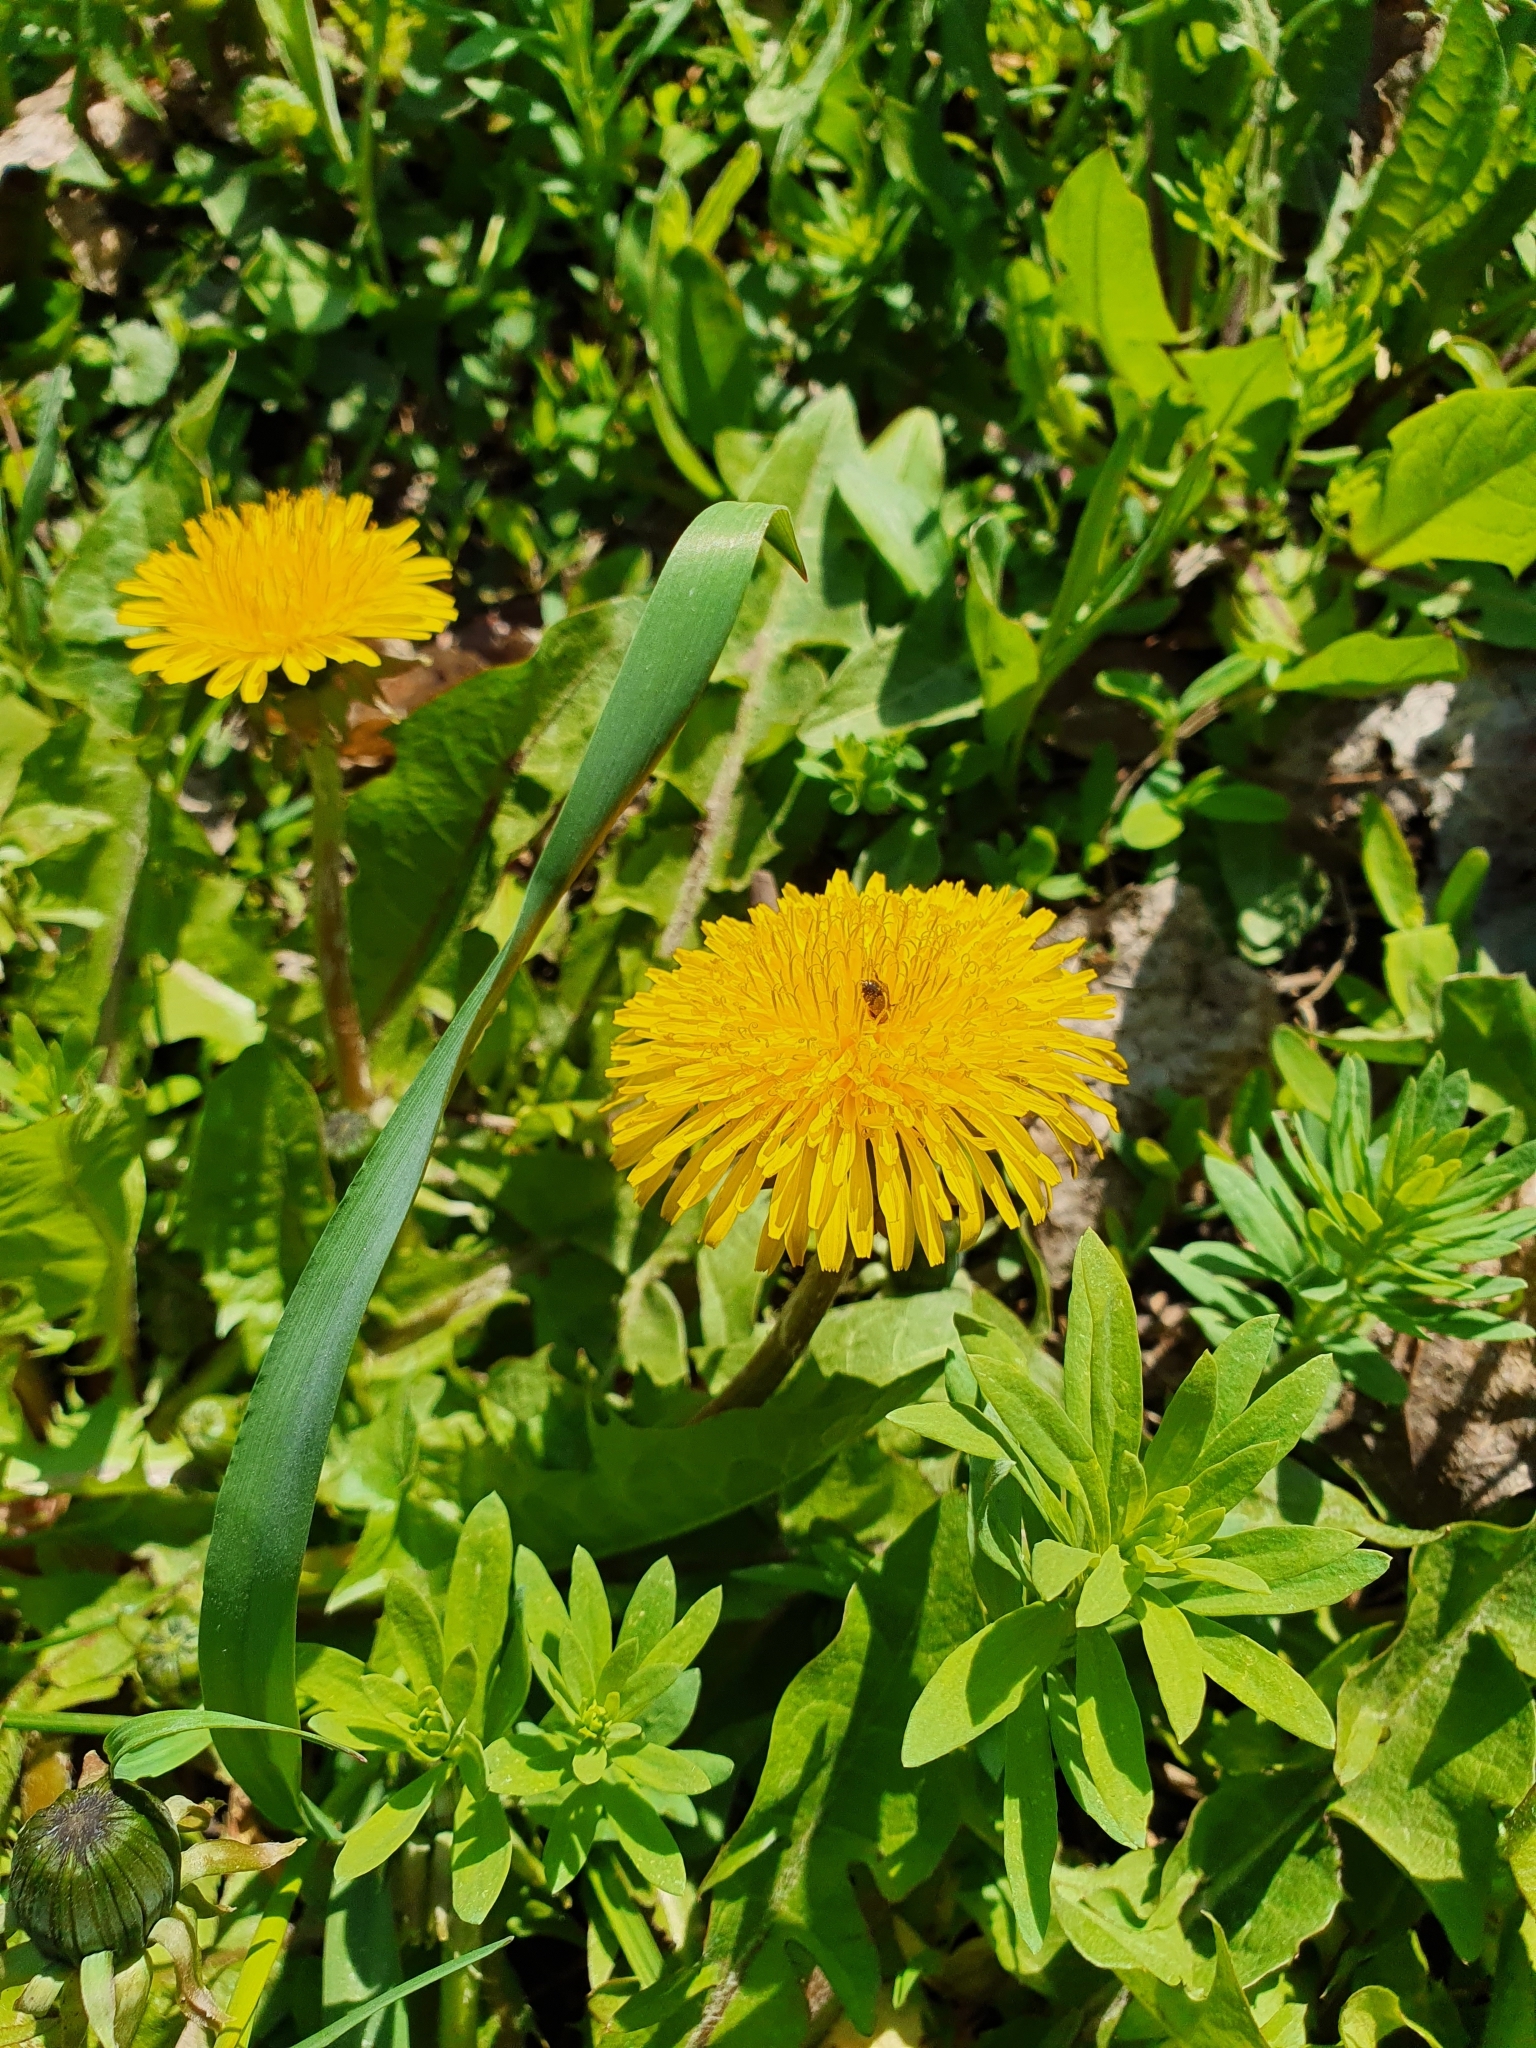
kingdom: Plantae
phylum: Tracheophyta
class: Magnoliopsida
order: Asterales
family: Asteraceae
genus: Taraxacum
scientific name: Taraxacum officinale
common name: Common dandelion
